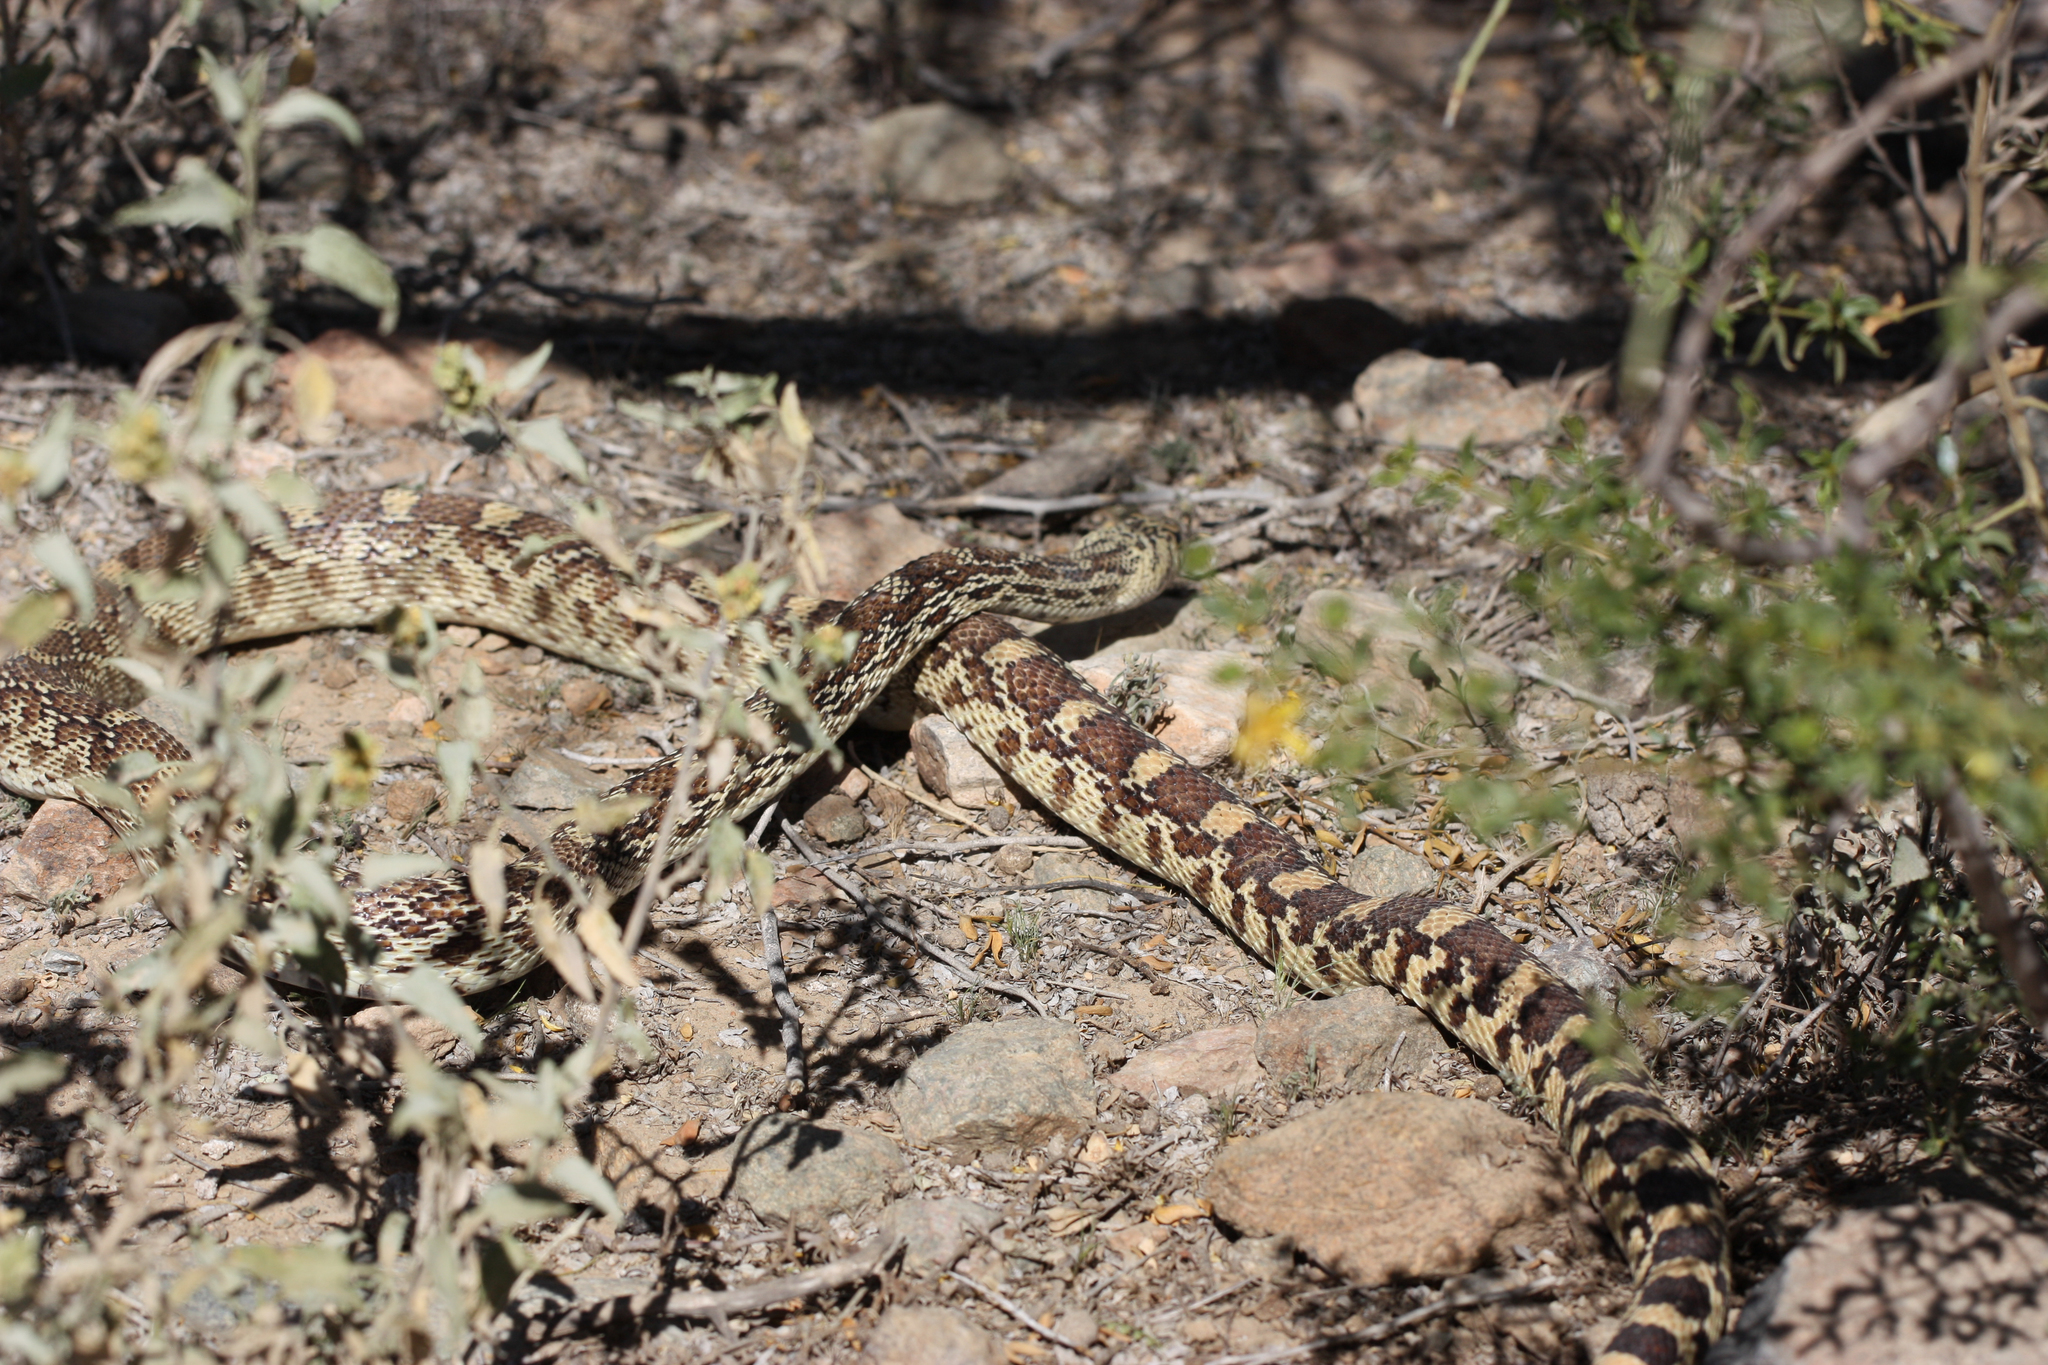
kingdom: Animalia
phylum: Chordata
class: Squamata
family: Colubridae
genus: Pituophis
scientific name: Pituophis catenifer
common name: Gopher snake
